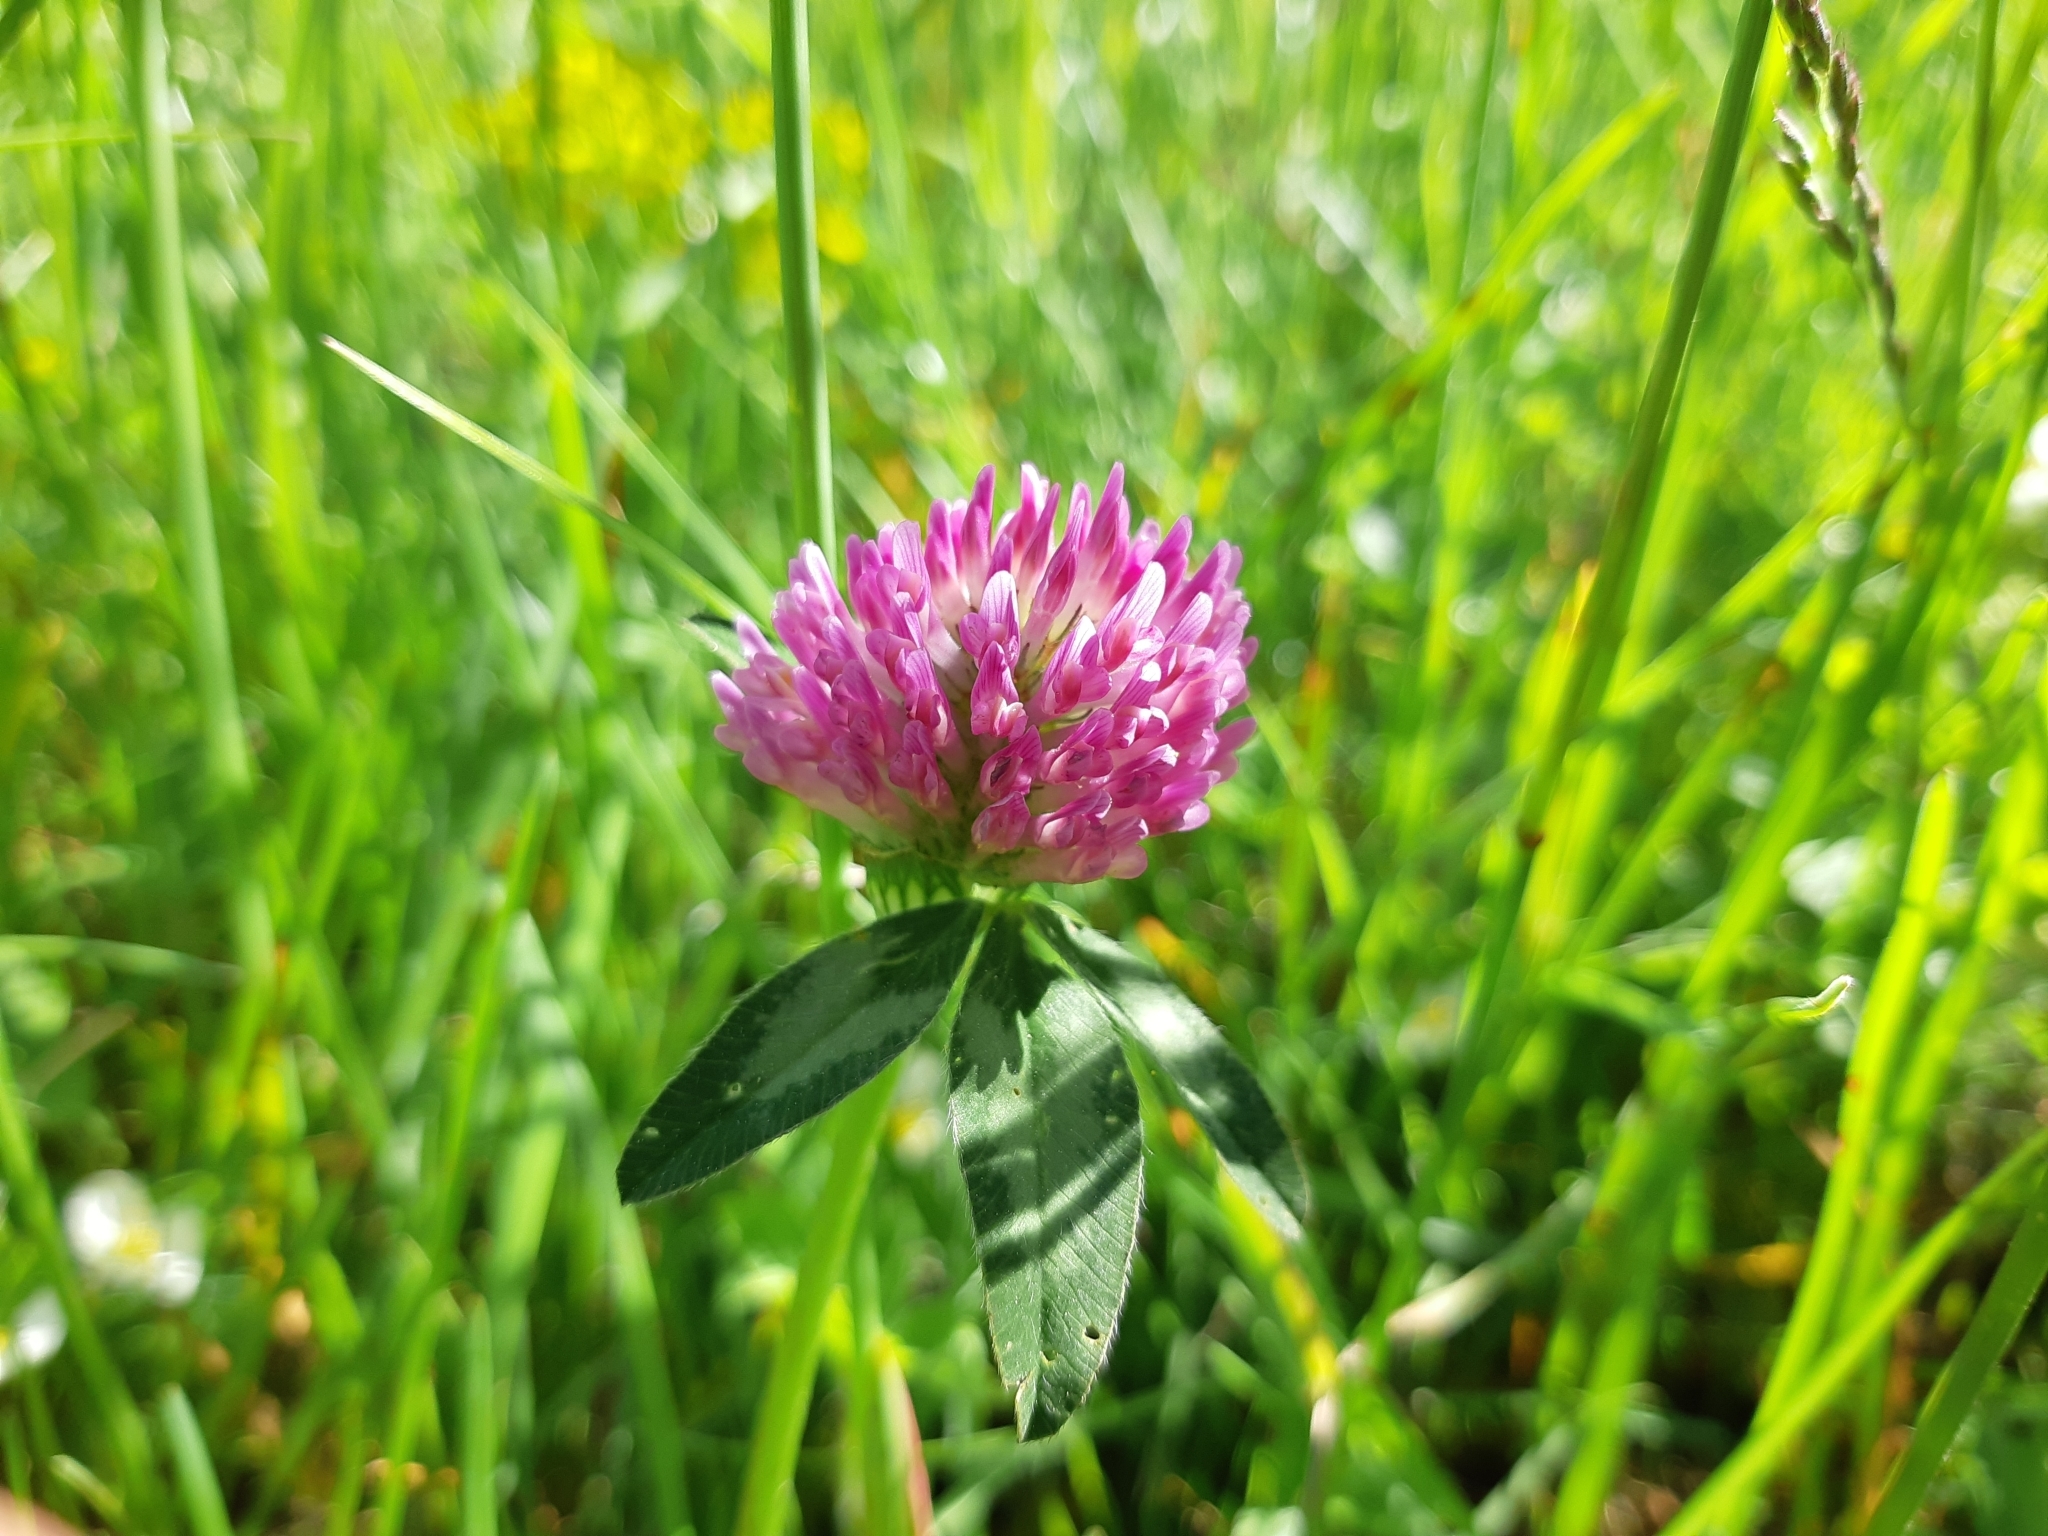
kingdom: Plantae
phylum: Tracheophyta
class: Magnoliopsida
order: Fabales
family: Fabaceae
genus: Trifolium
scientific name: Trifolium pratense
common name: Red clover
